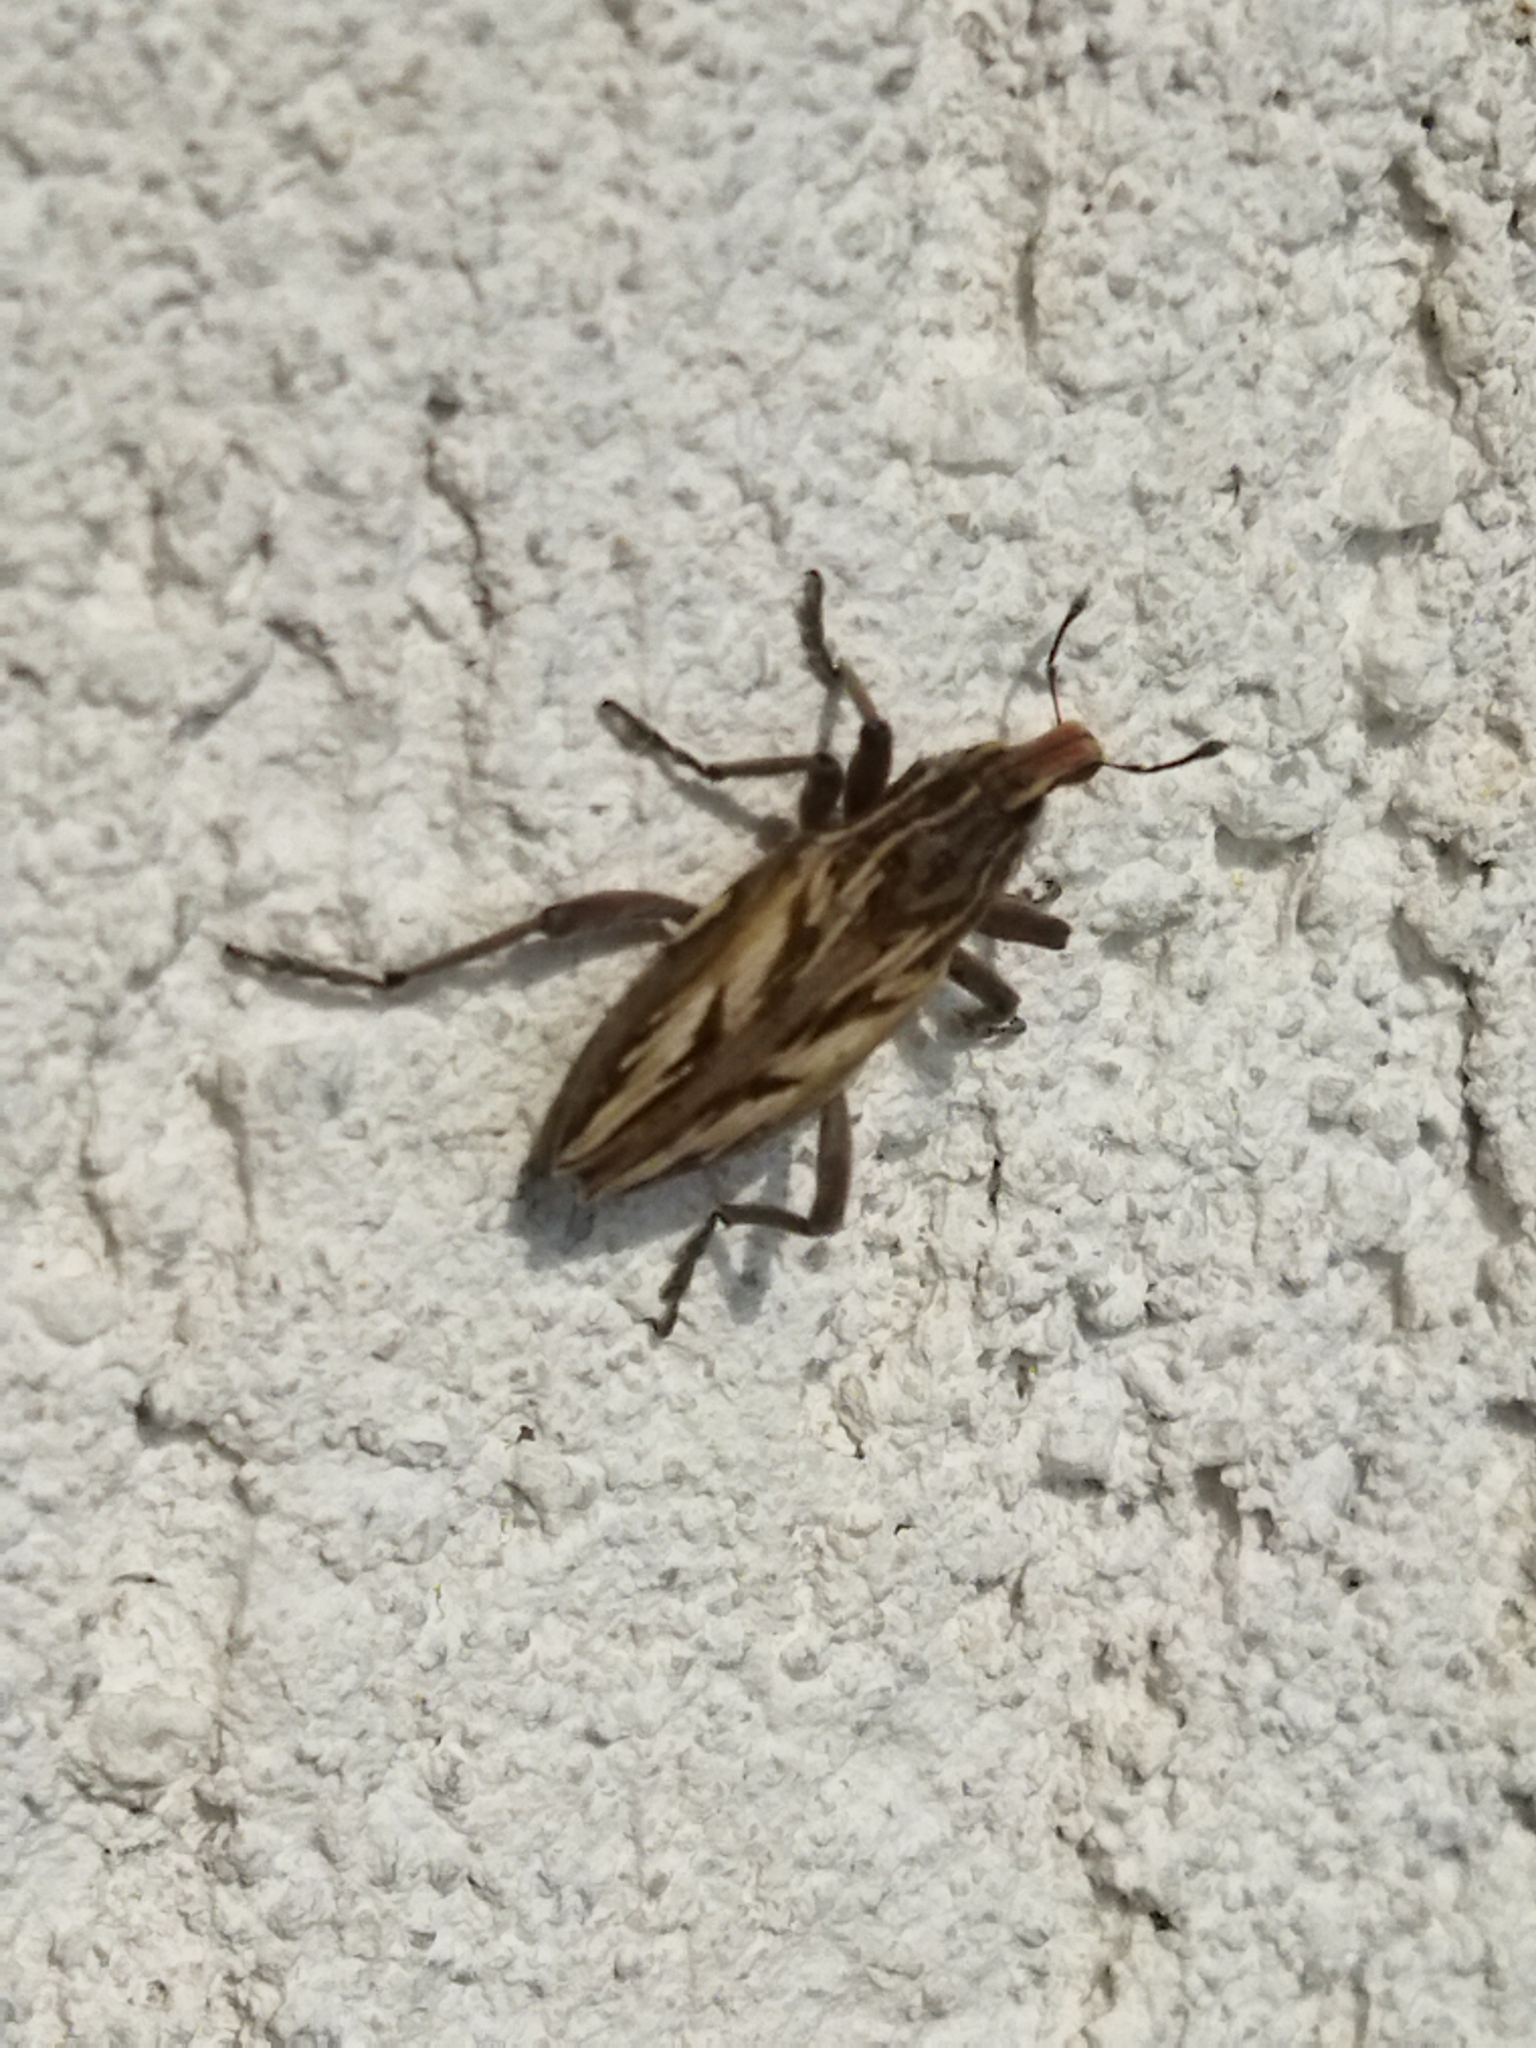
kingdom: Animalia
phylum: Arthropoda
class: Insecta
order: Coleoptera
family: Curculionidae
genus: Coniocleonus
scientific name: Coniocleonus nigrosuturatus
